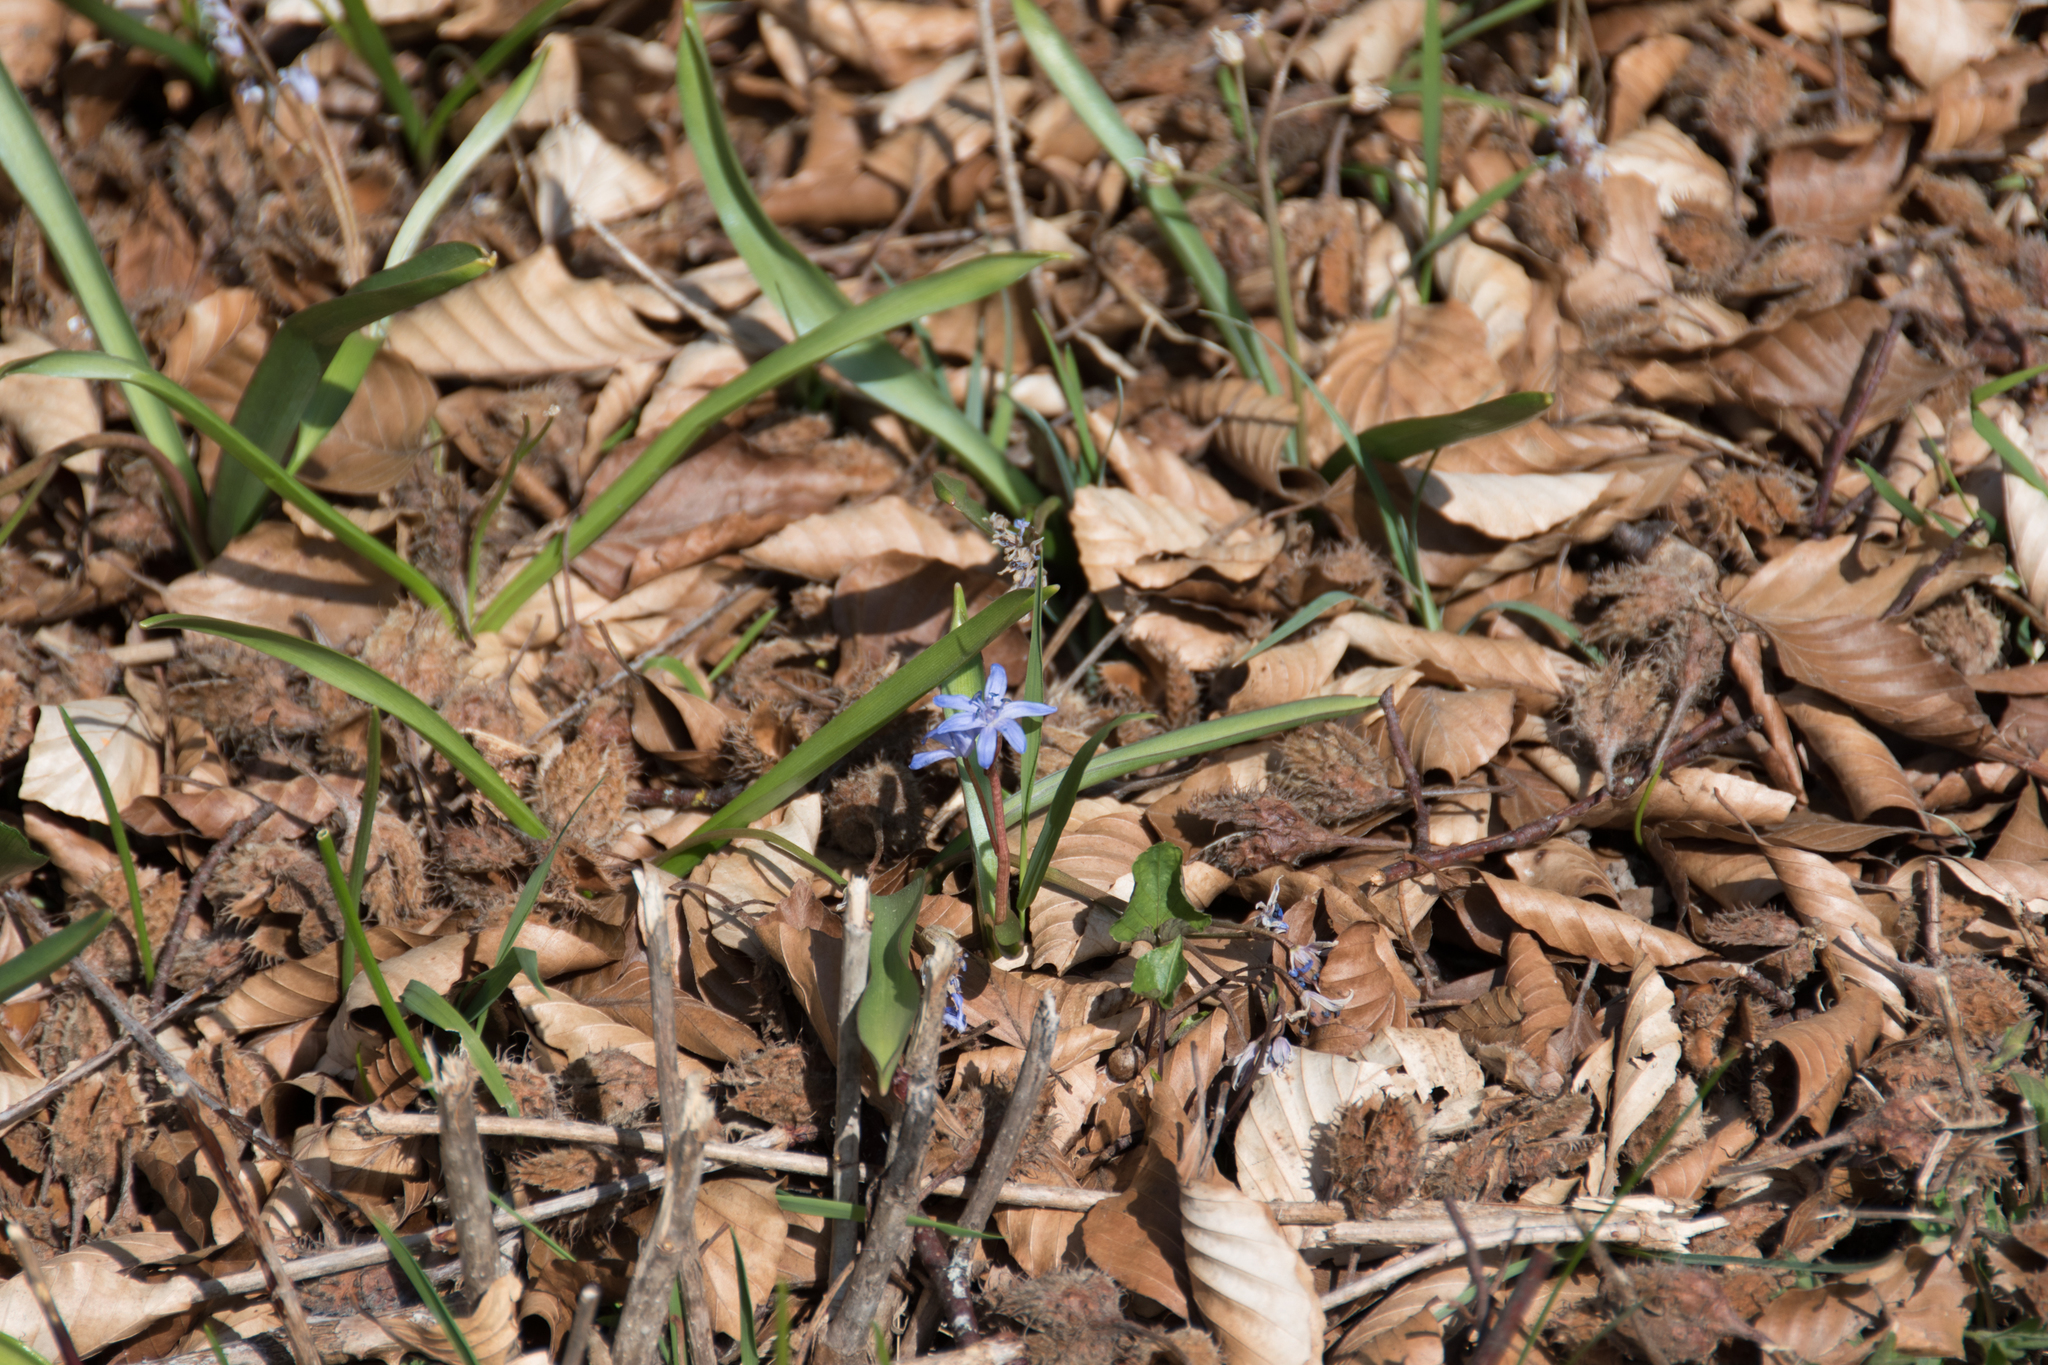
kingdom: Plantae
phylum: Tracheophyta
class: Liliopsida
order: Asparagales
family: Asparagaceae
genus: Scilla
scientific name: Scilla bifolia
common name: Alpine squill
